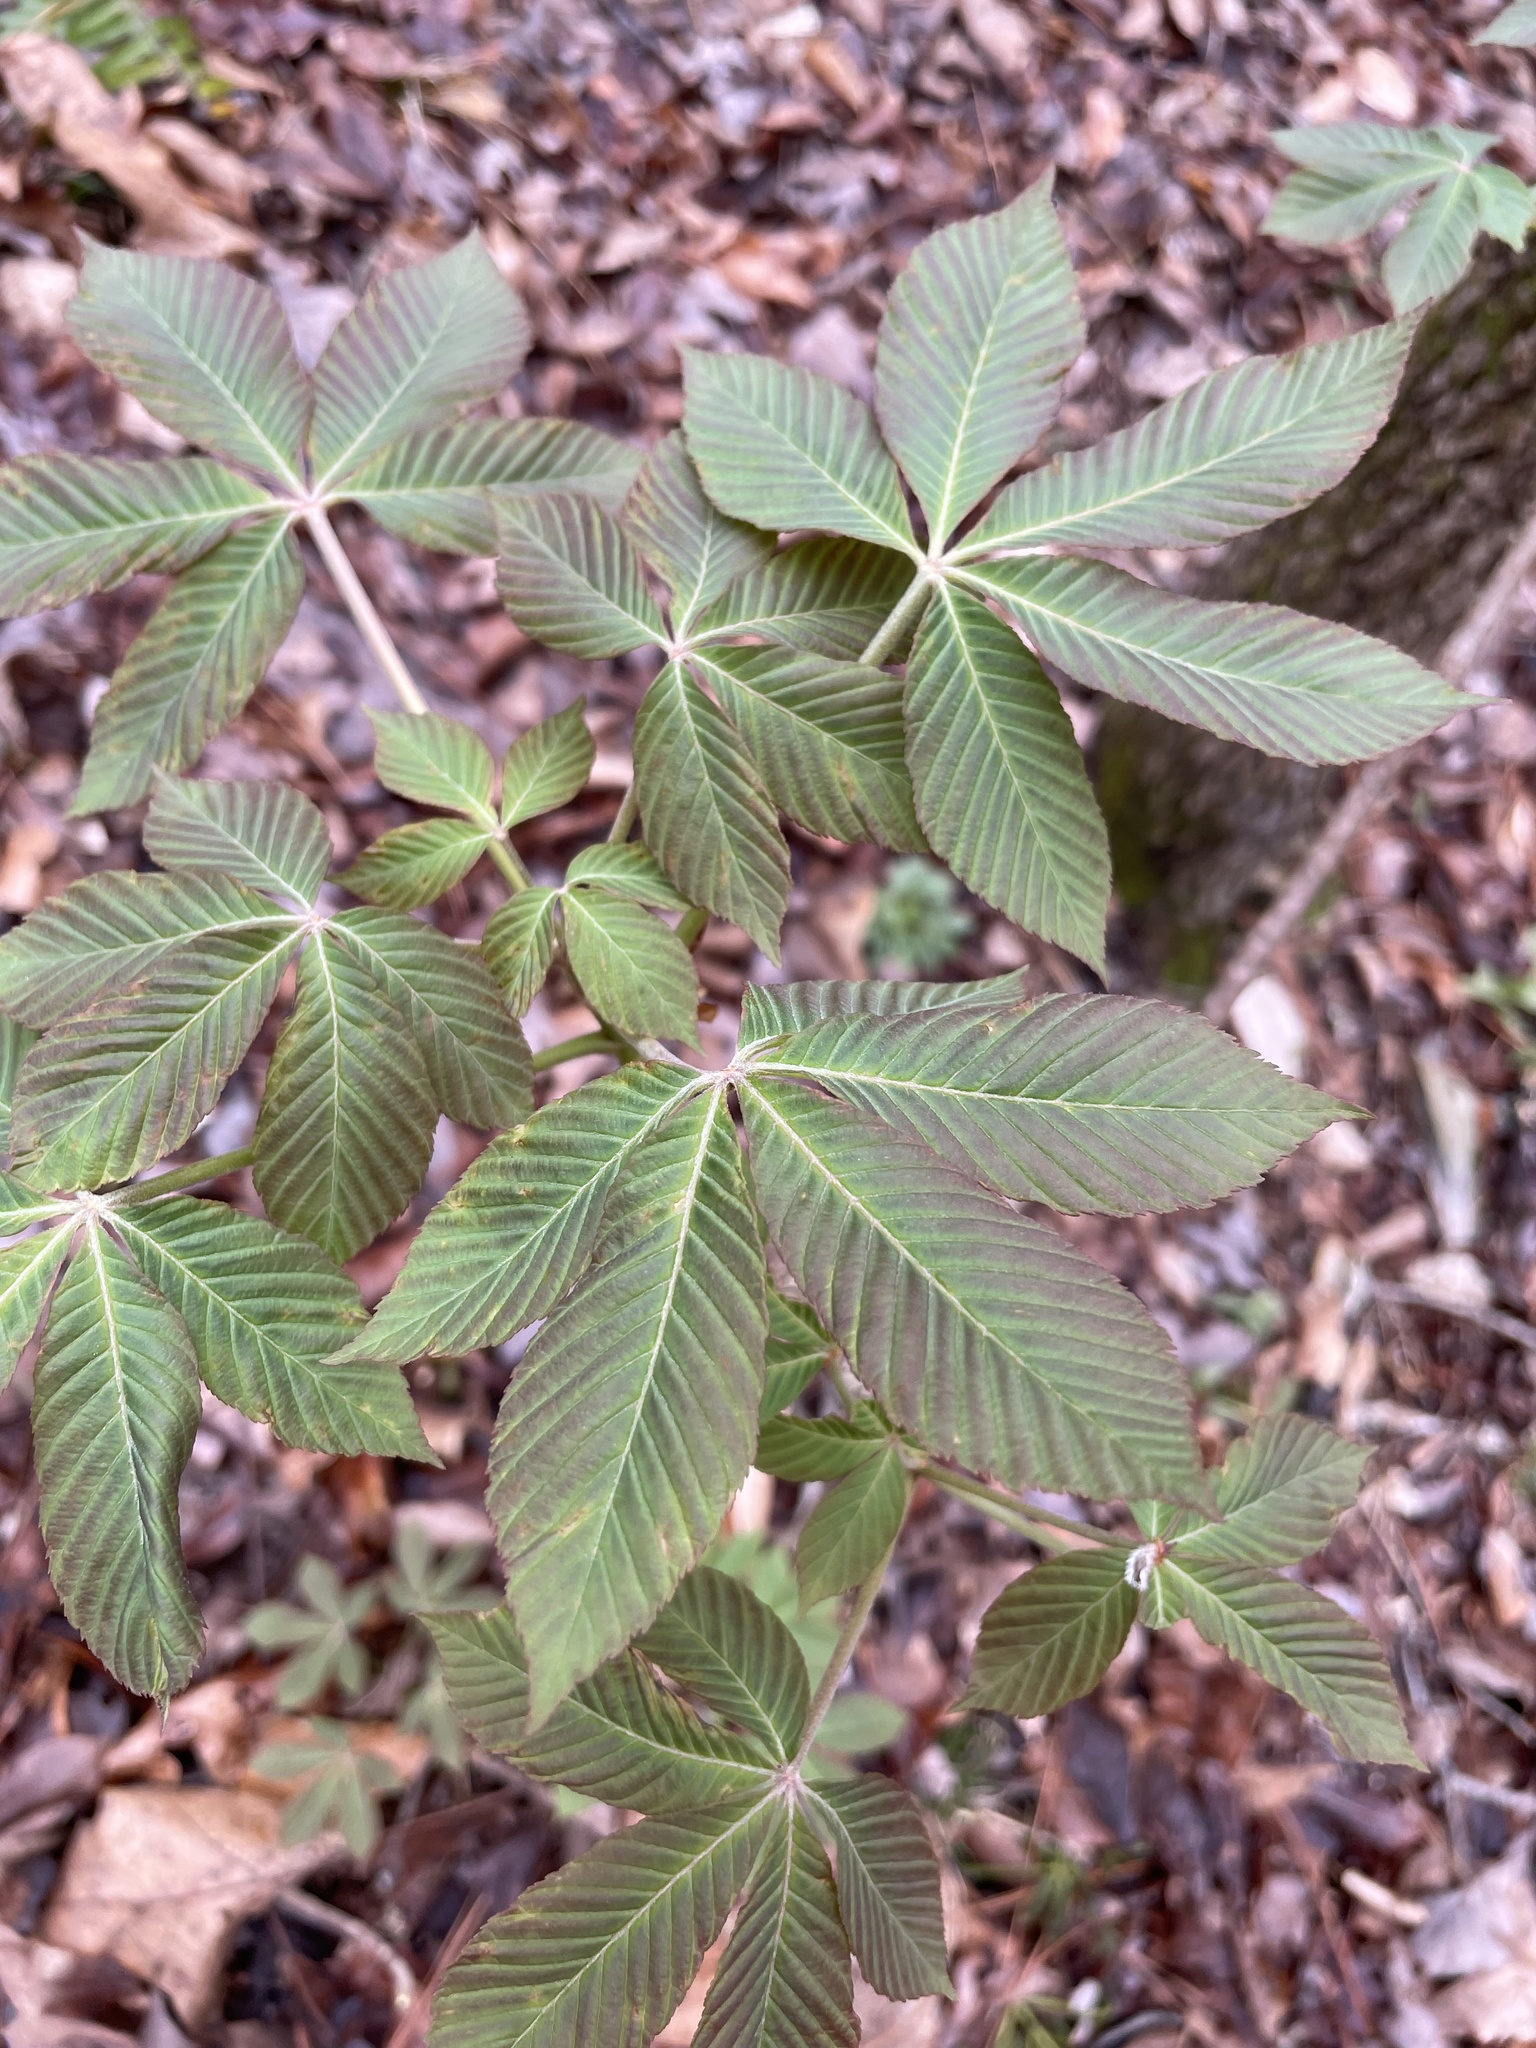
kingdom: Plantae
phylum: Tracheophyta
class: Magnoliopsida
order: Sapindales
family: Sapindaceae
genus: Aesculus
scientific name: Aesculus sylvatica
